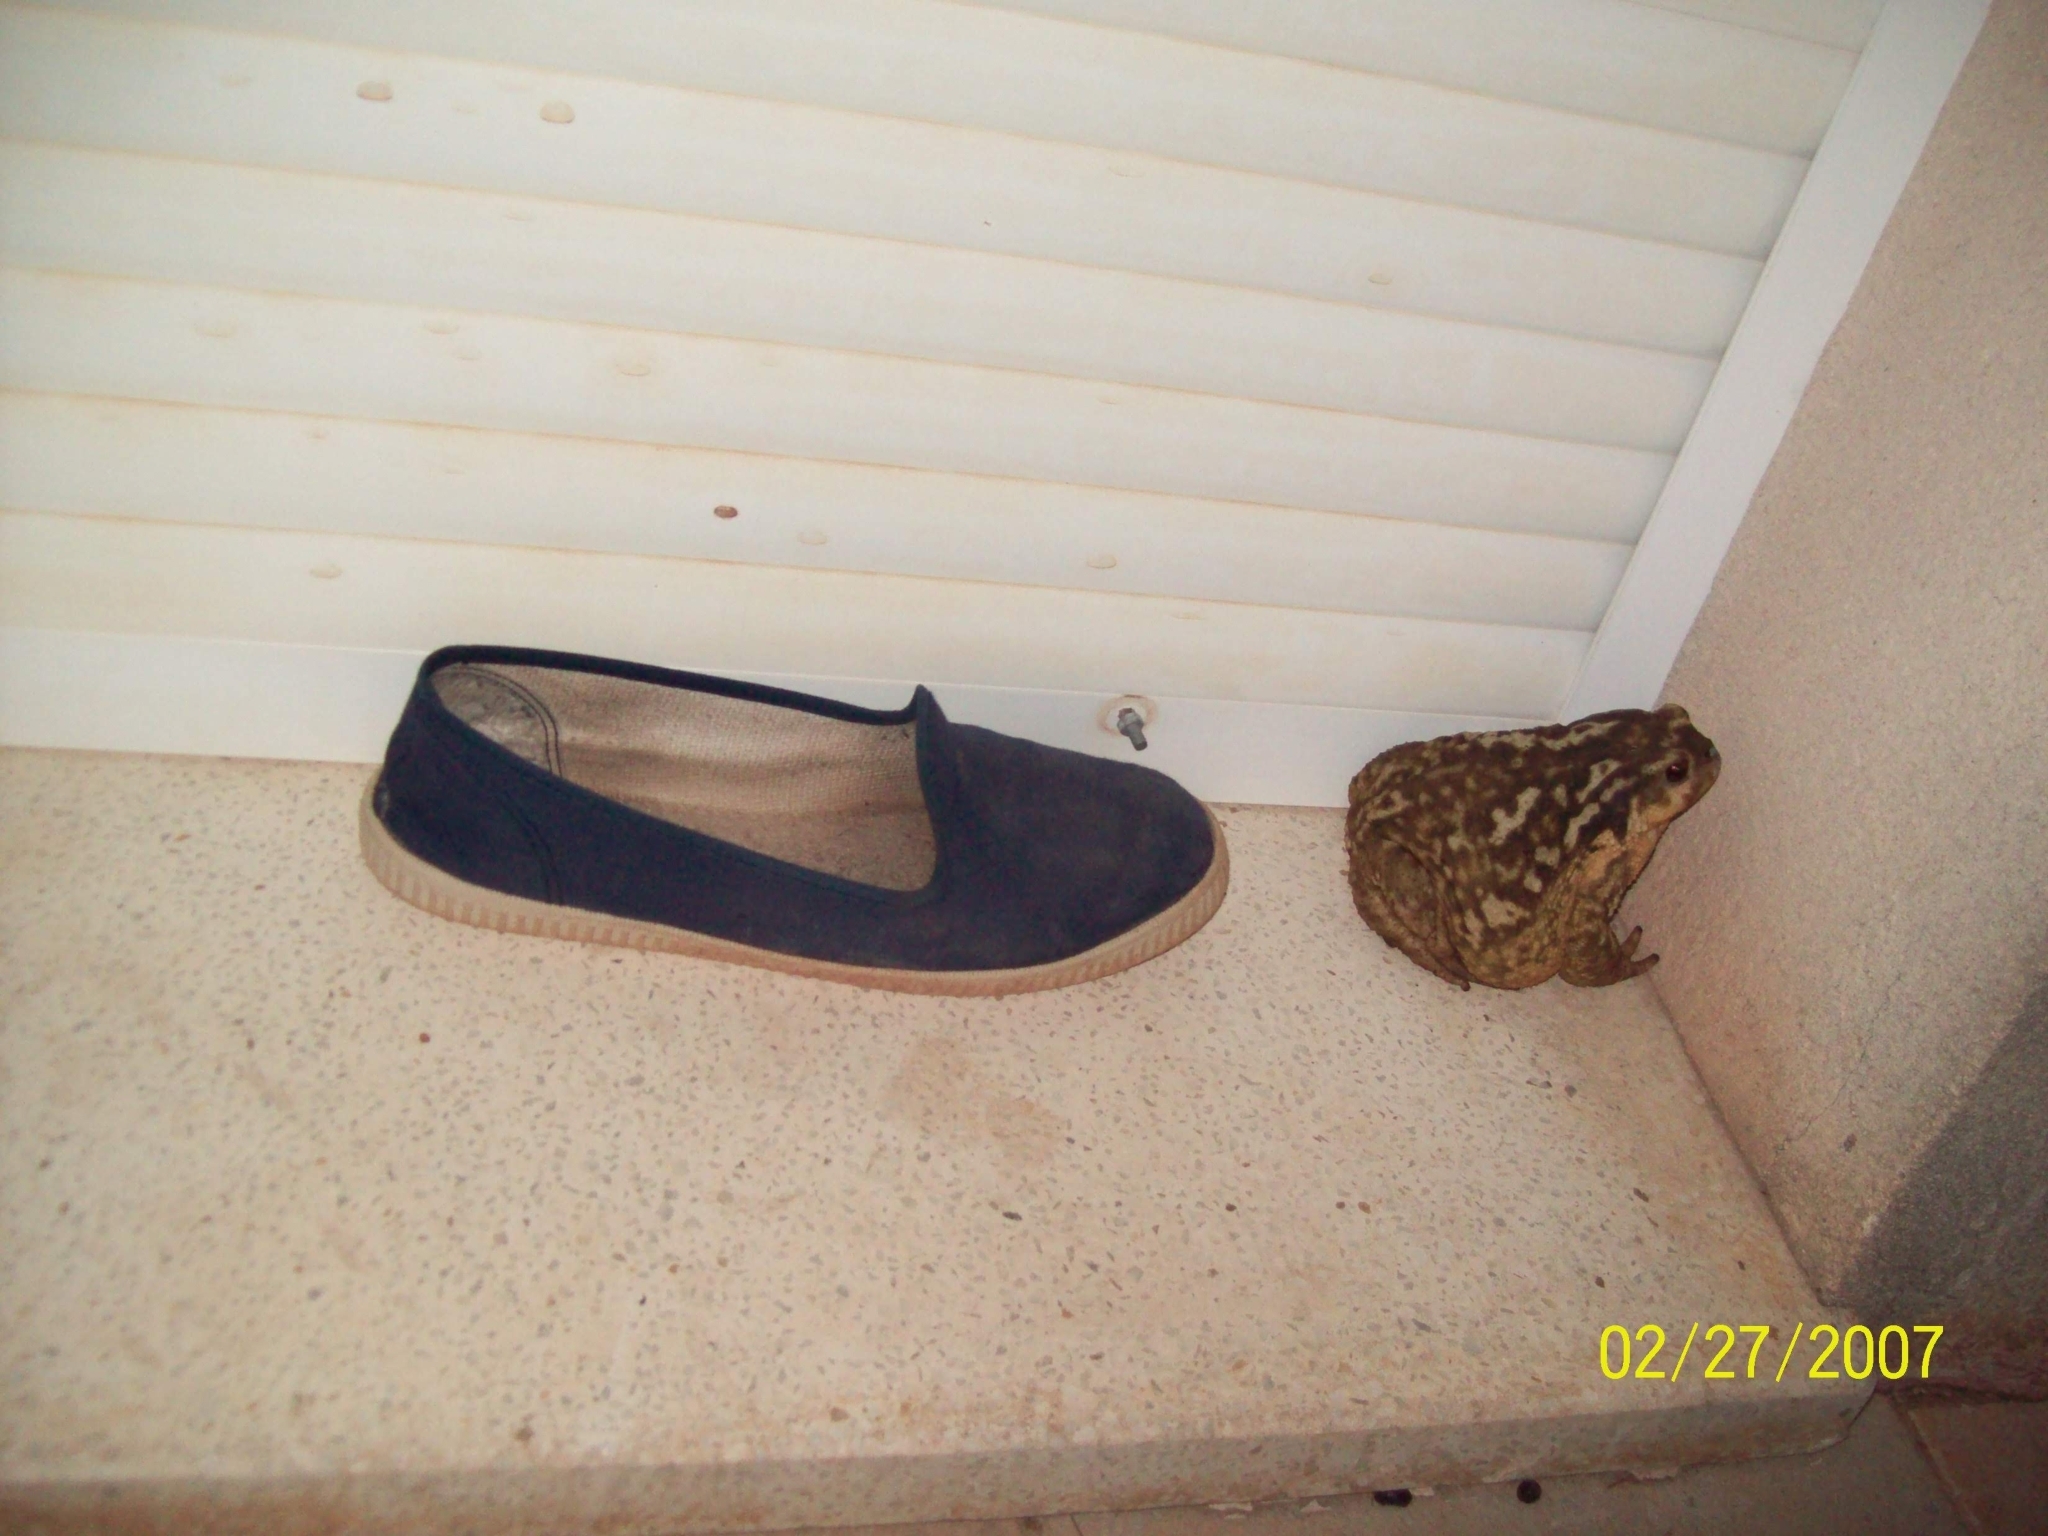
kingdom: Animalia
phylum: Chordata
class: Amphibia
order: Anura
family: Bufonidae
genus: Bufo
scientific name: Bufo spinosus
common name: Western common toad
